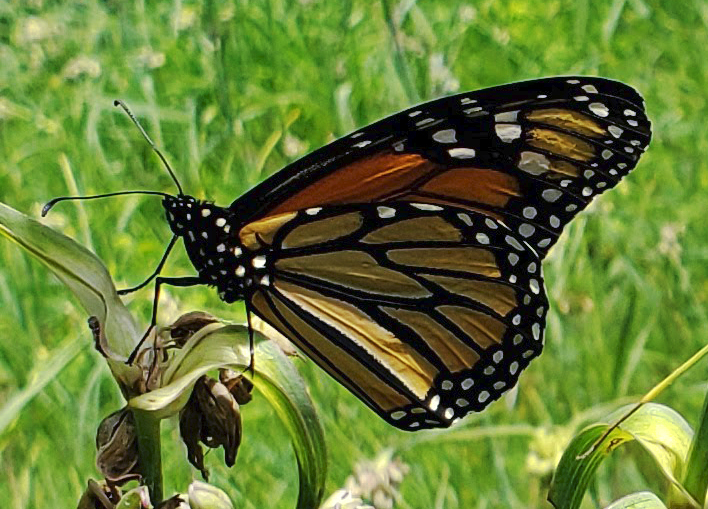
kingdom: Animalia
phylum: Arthropoda
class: Insecta
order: Lepidoptera
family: Nymphalidae
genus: Danaus
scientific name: Danaus plexippus
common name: Monarch
